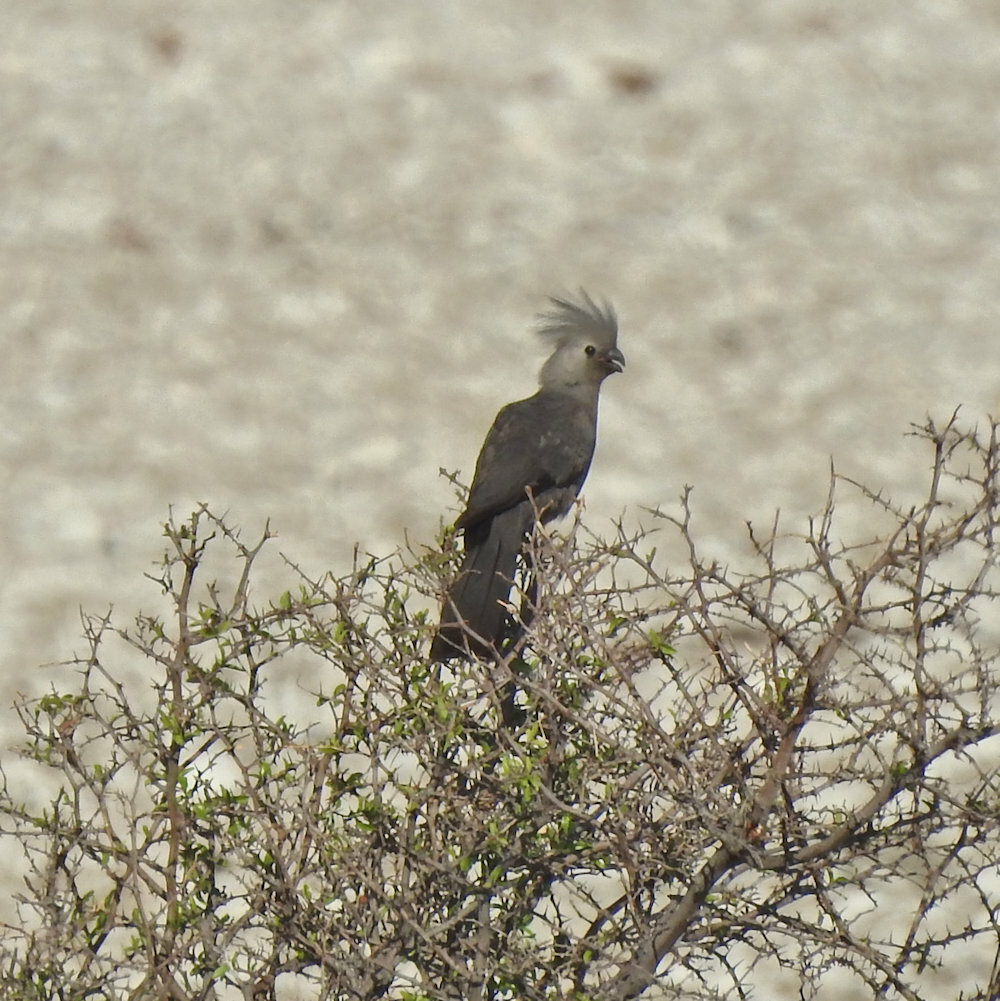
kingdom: Animalia
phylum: Chordata
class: Aves
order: Musophagiformes
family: Musophagidae
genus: Corythaixoides
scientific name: Corythaixoides concolor
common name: Grey go-away-bird
